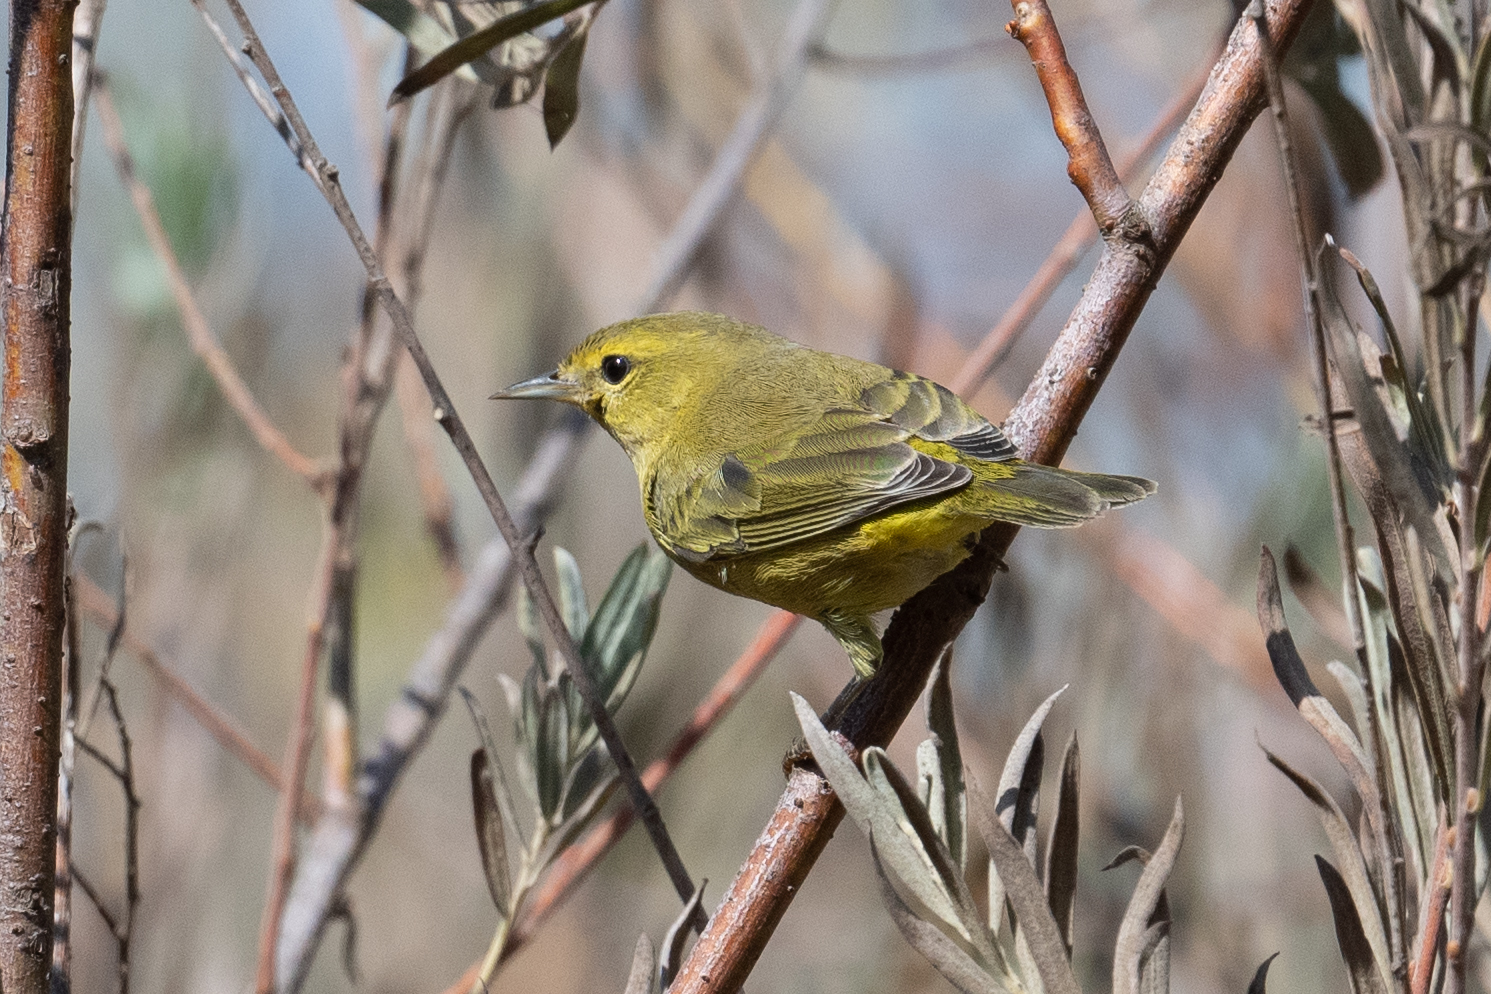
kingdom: Animalia
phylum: Chordata
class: Aves
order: Passeriformes
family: Parulidae
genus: Leiothlypis
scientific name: Leiothlypis celata
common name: Orange-crowned warbler
